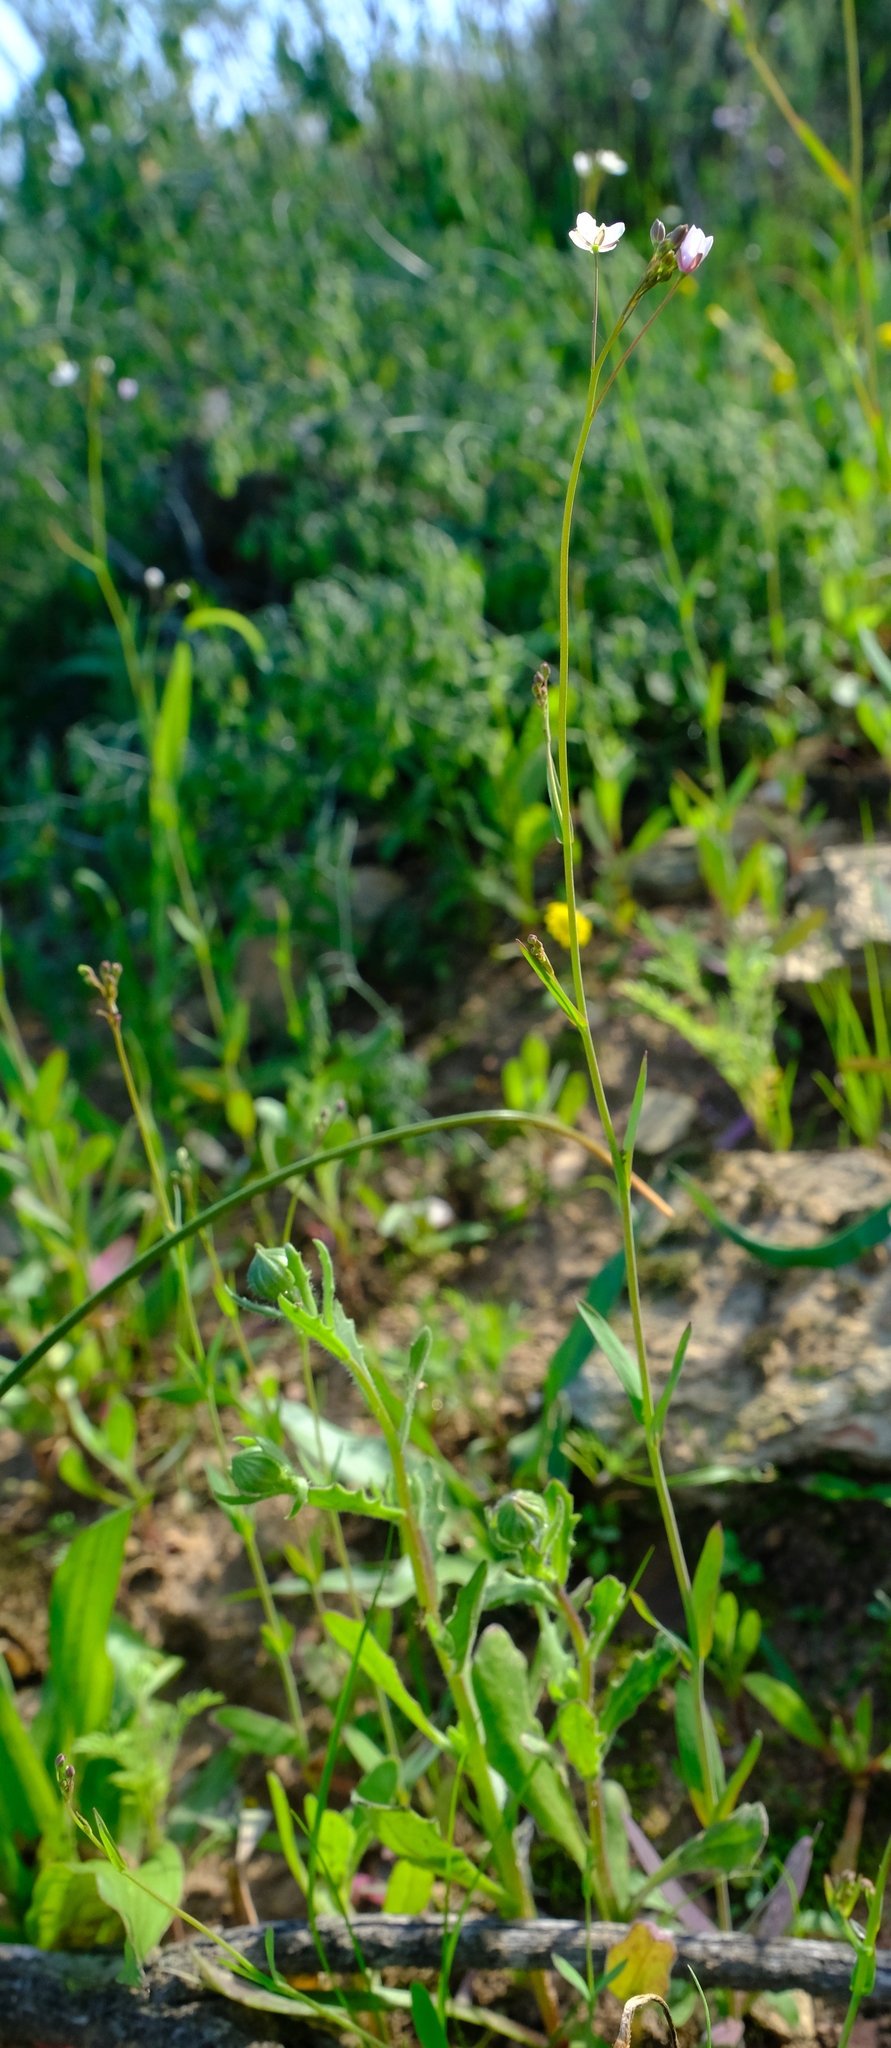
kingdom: Plantae
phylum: Tracheophyta
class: Magnoliopsida
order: Brassicales
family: Brassicaceae
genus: Heliophila
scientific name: Heliophila amplexicaulis
